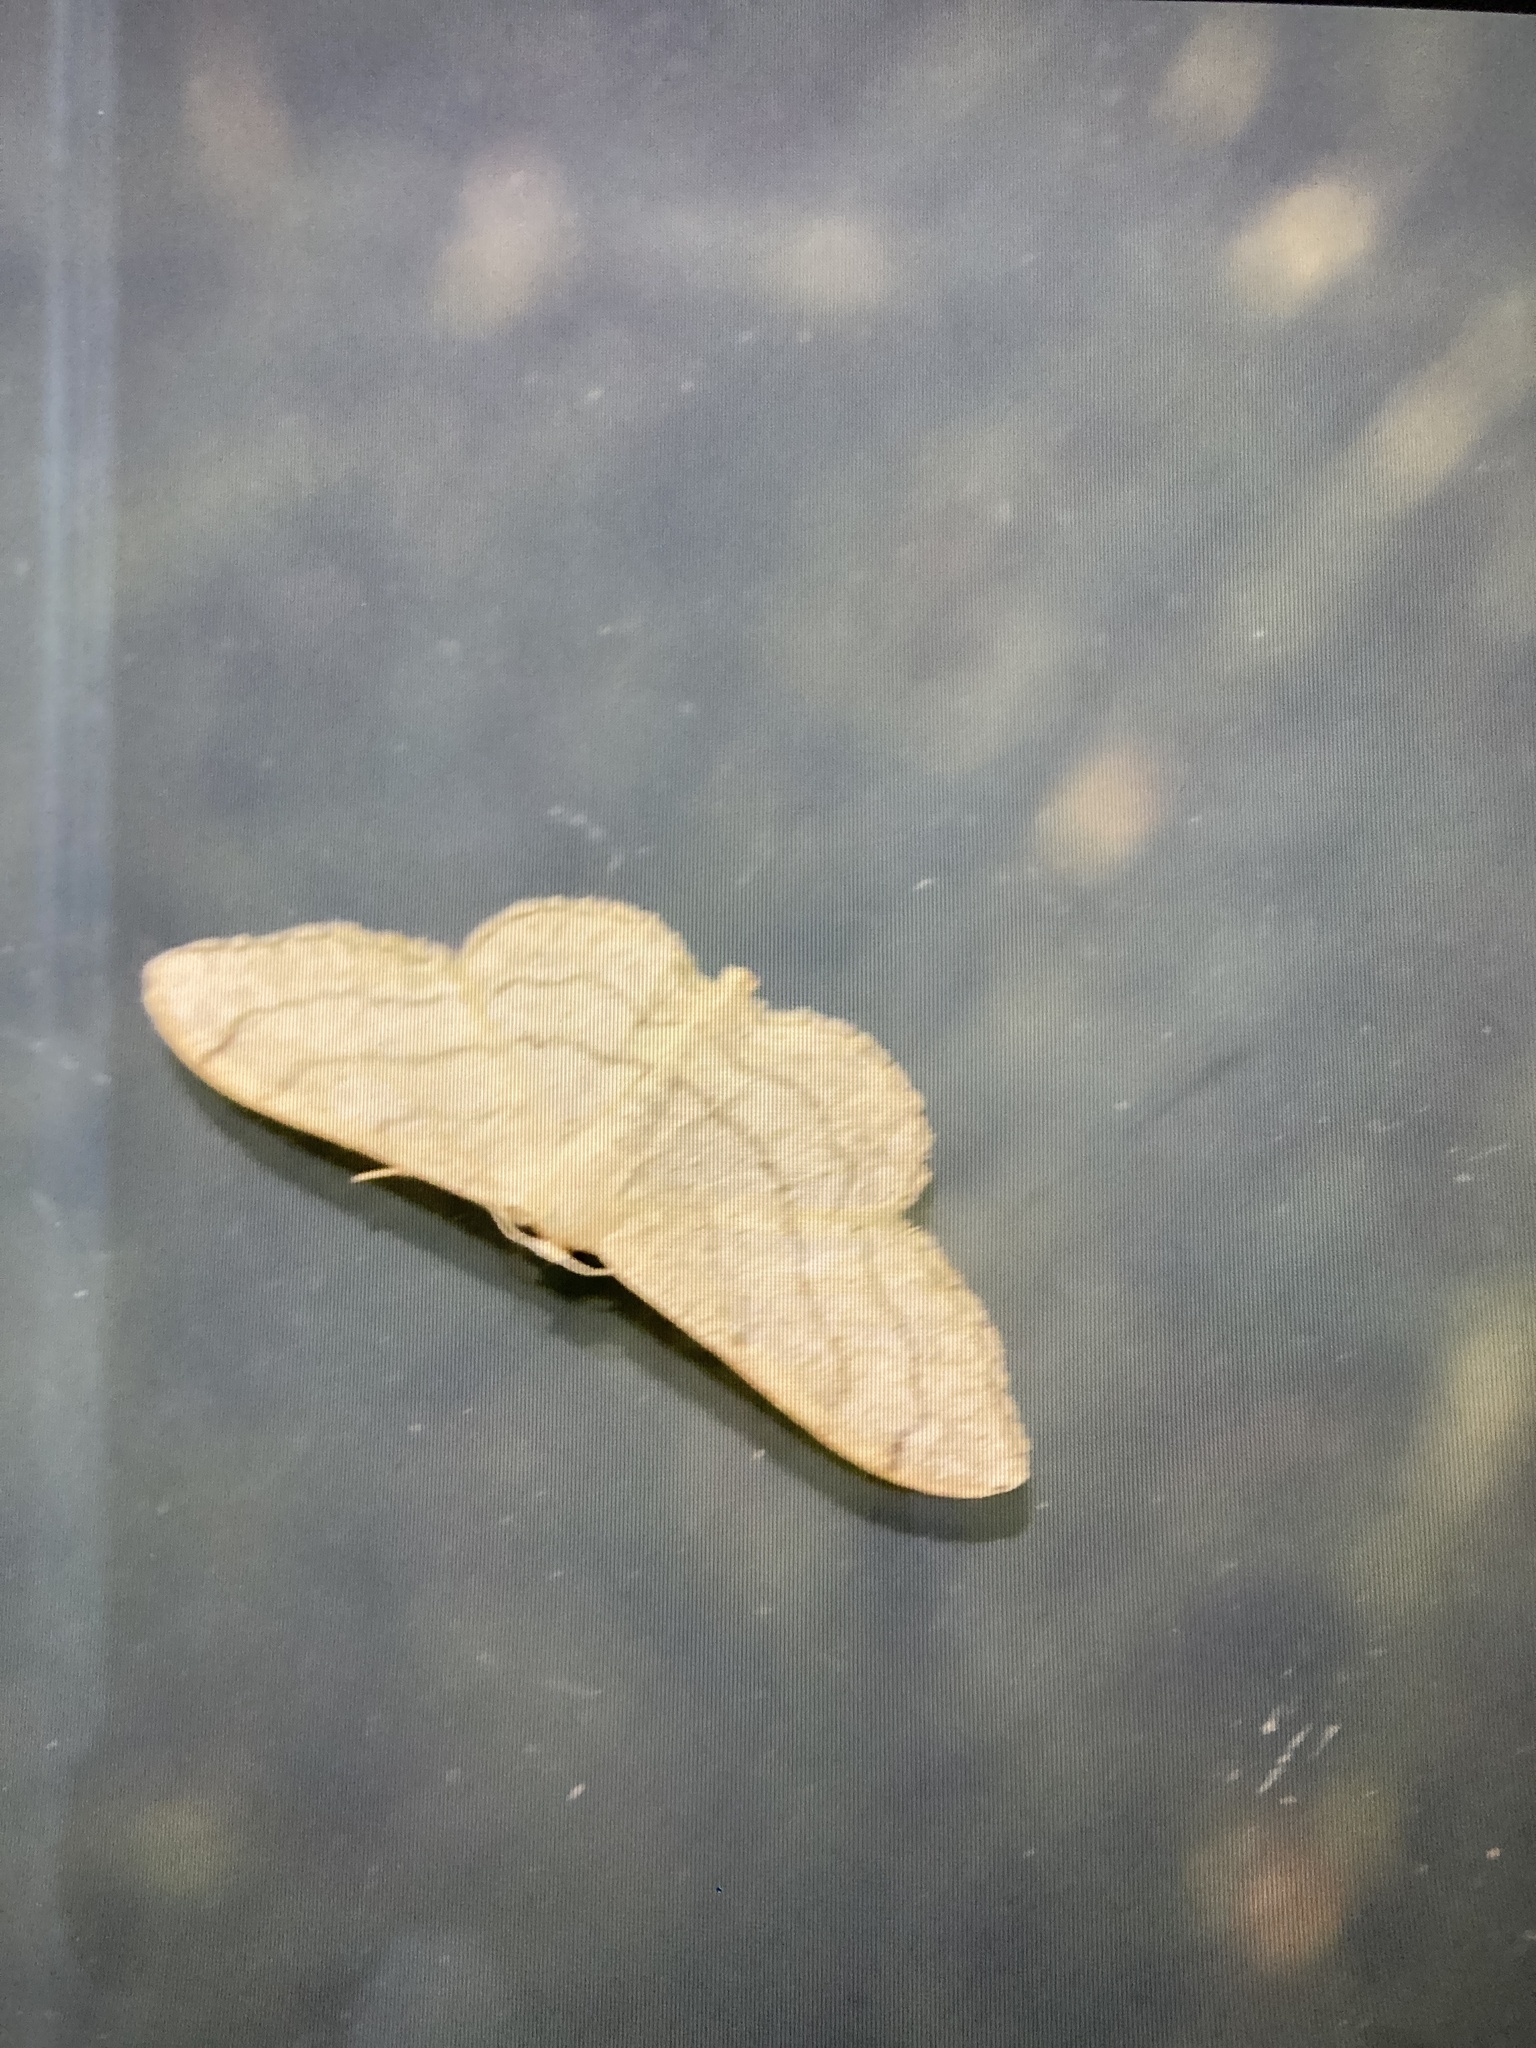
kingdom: Animalia
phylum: Arthropoda
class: Insecta
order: Lepidoptera
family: Geometridae
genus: Idaea
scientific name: Idaea aversata
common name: Riband wave
